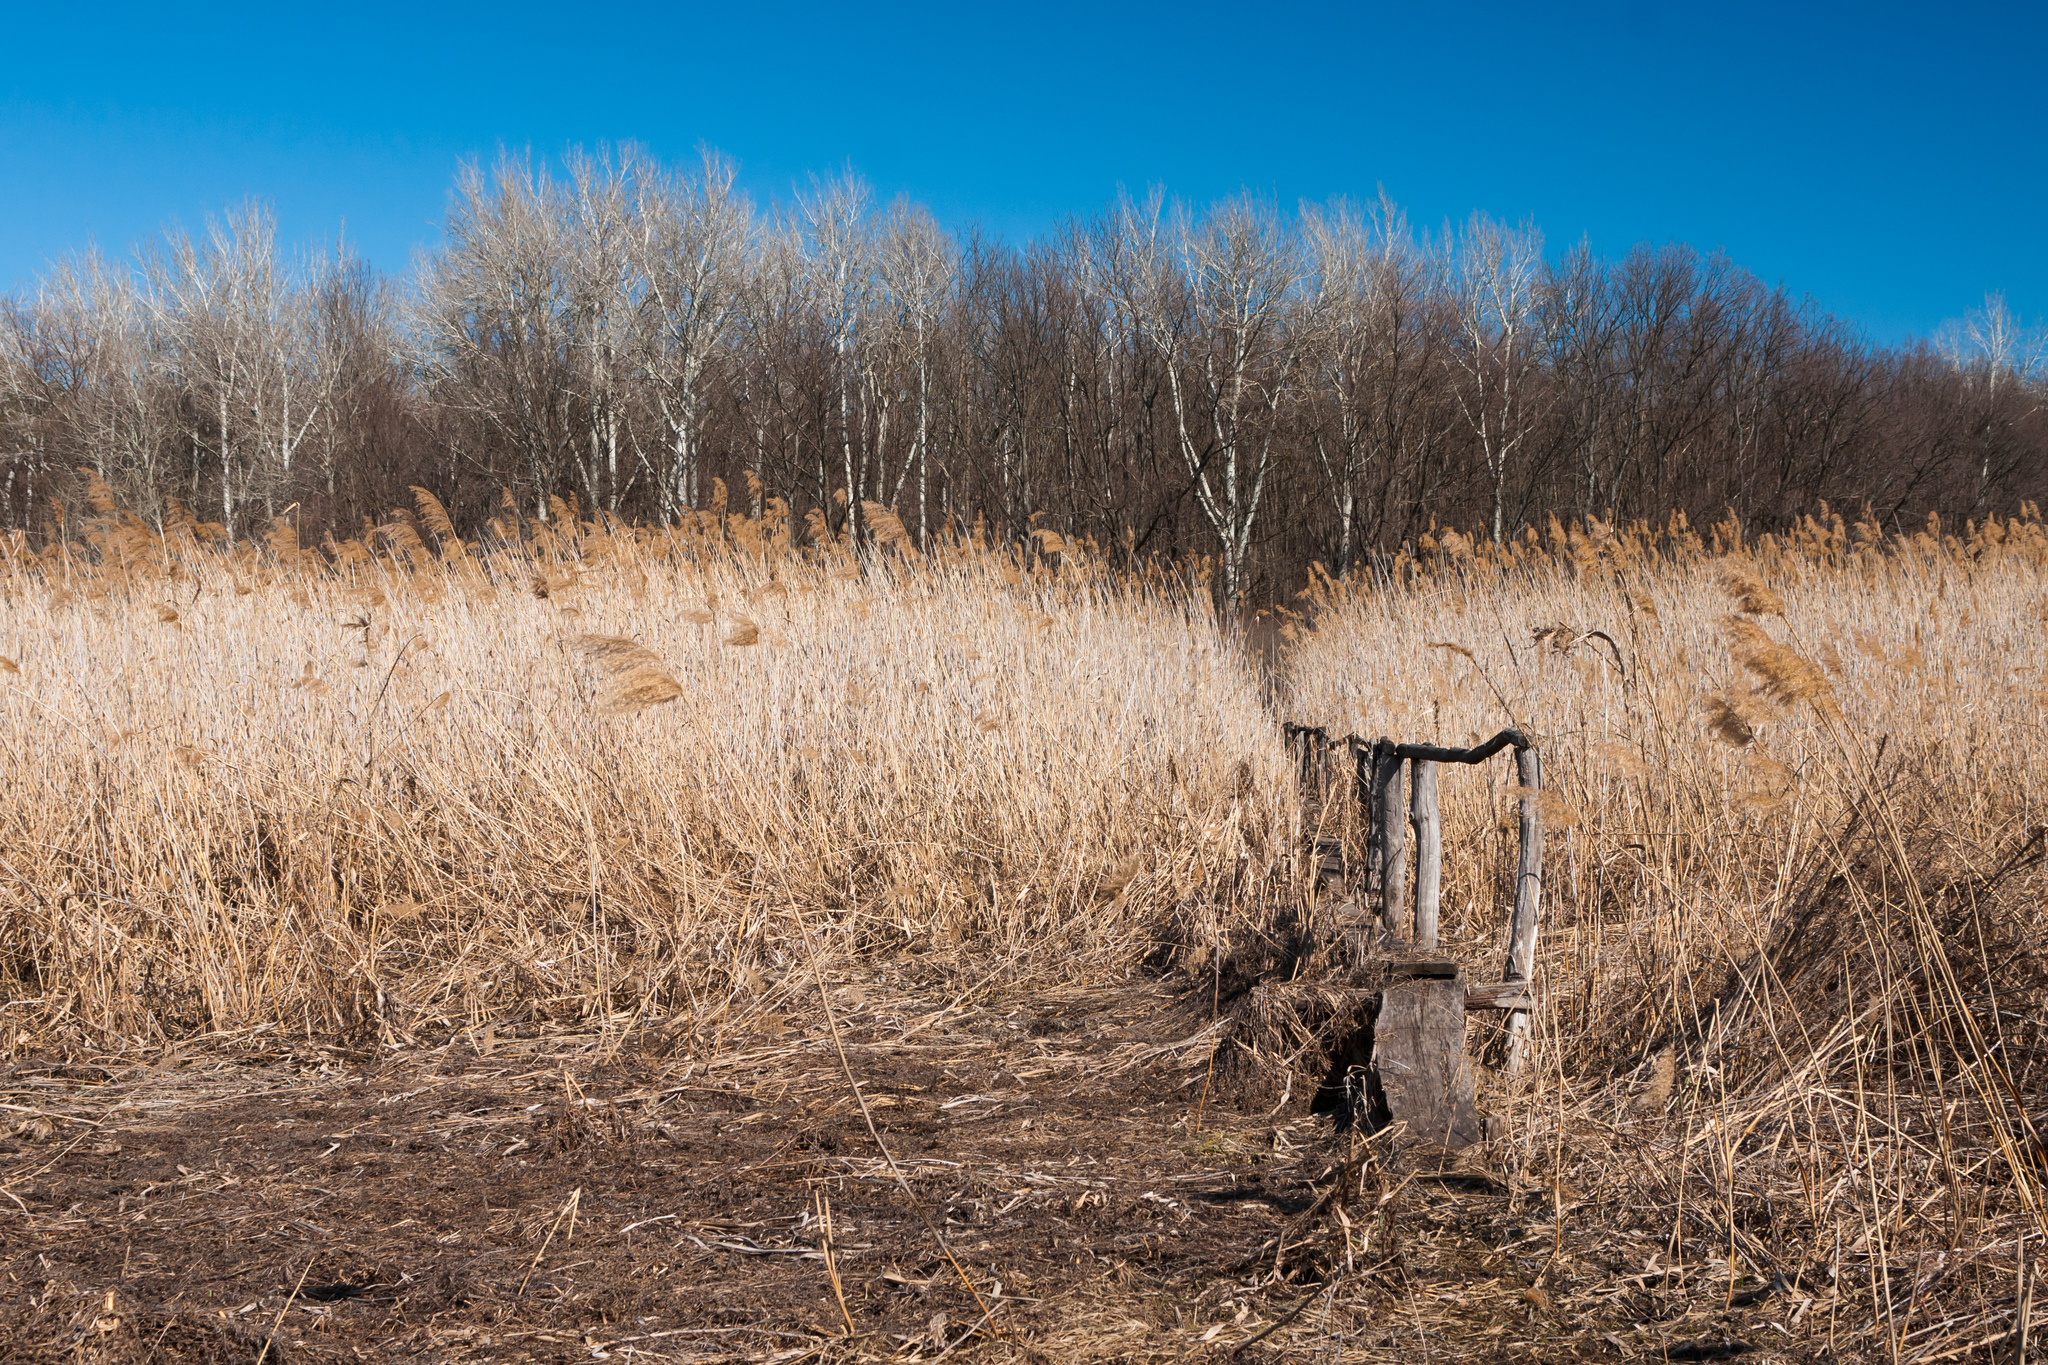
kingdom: Plantae
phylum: Tracheophyta
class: Liliopsida
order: Poales
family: Poaceae
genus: Phragmites
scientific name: Phragmites australis
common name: Common reed
